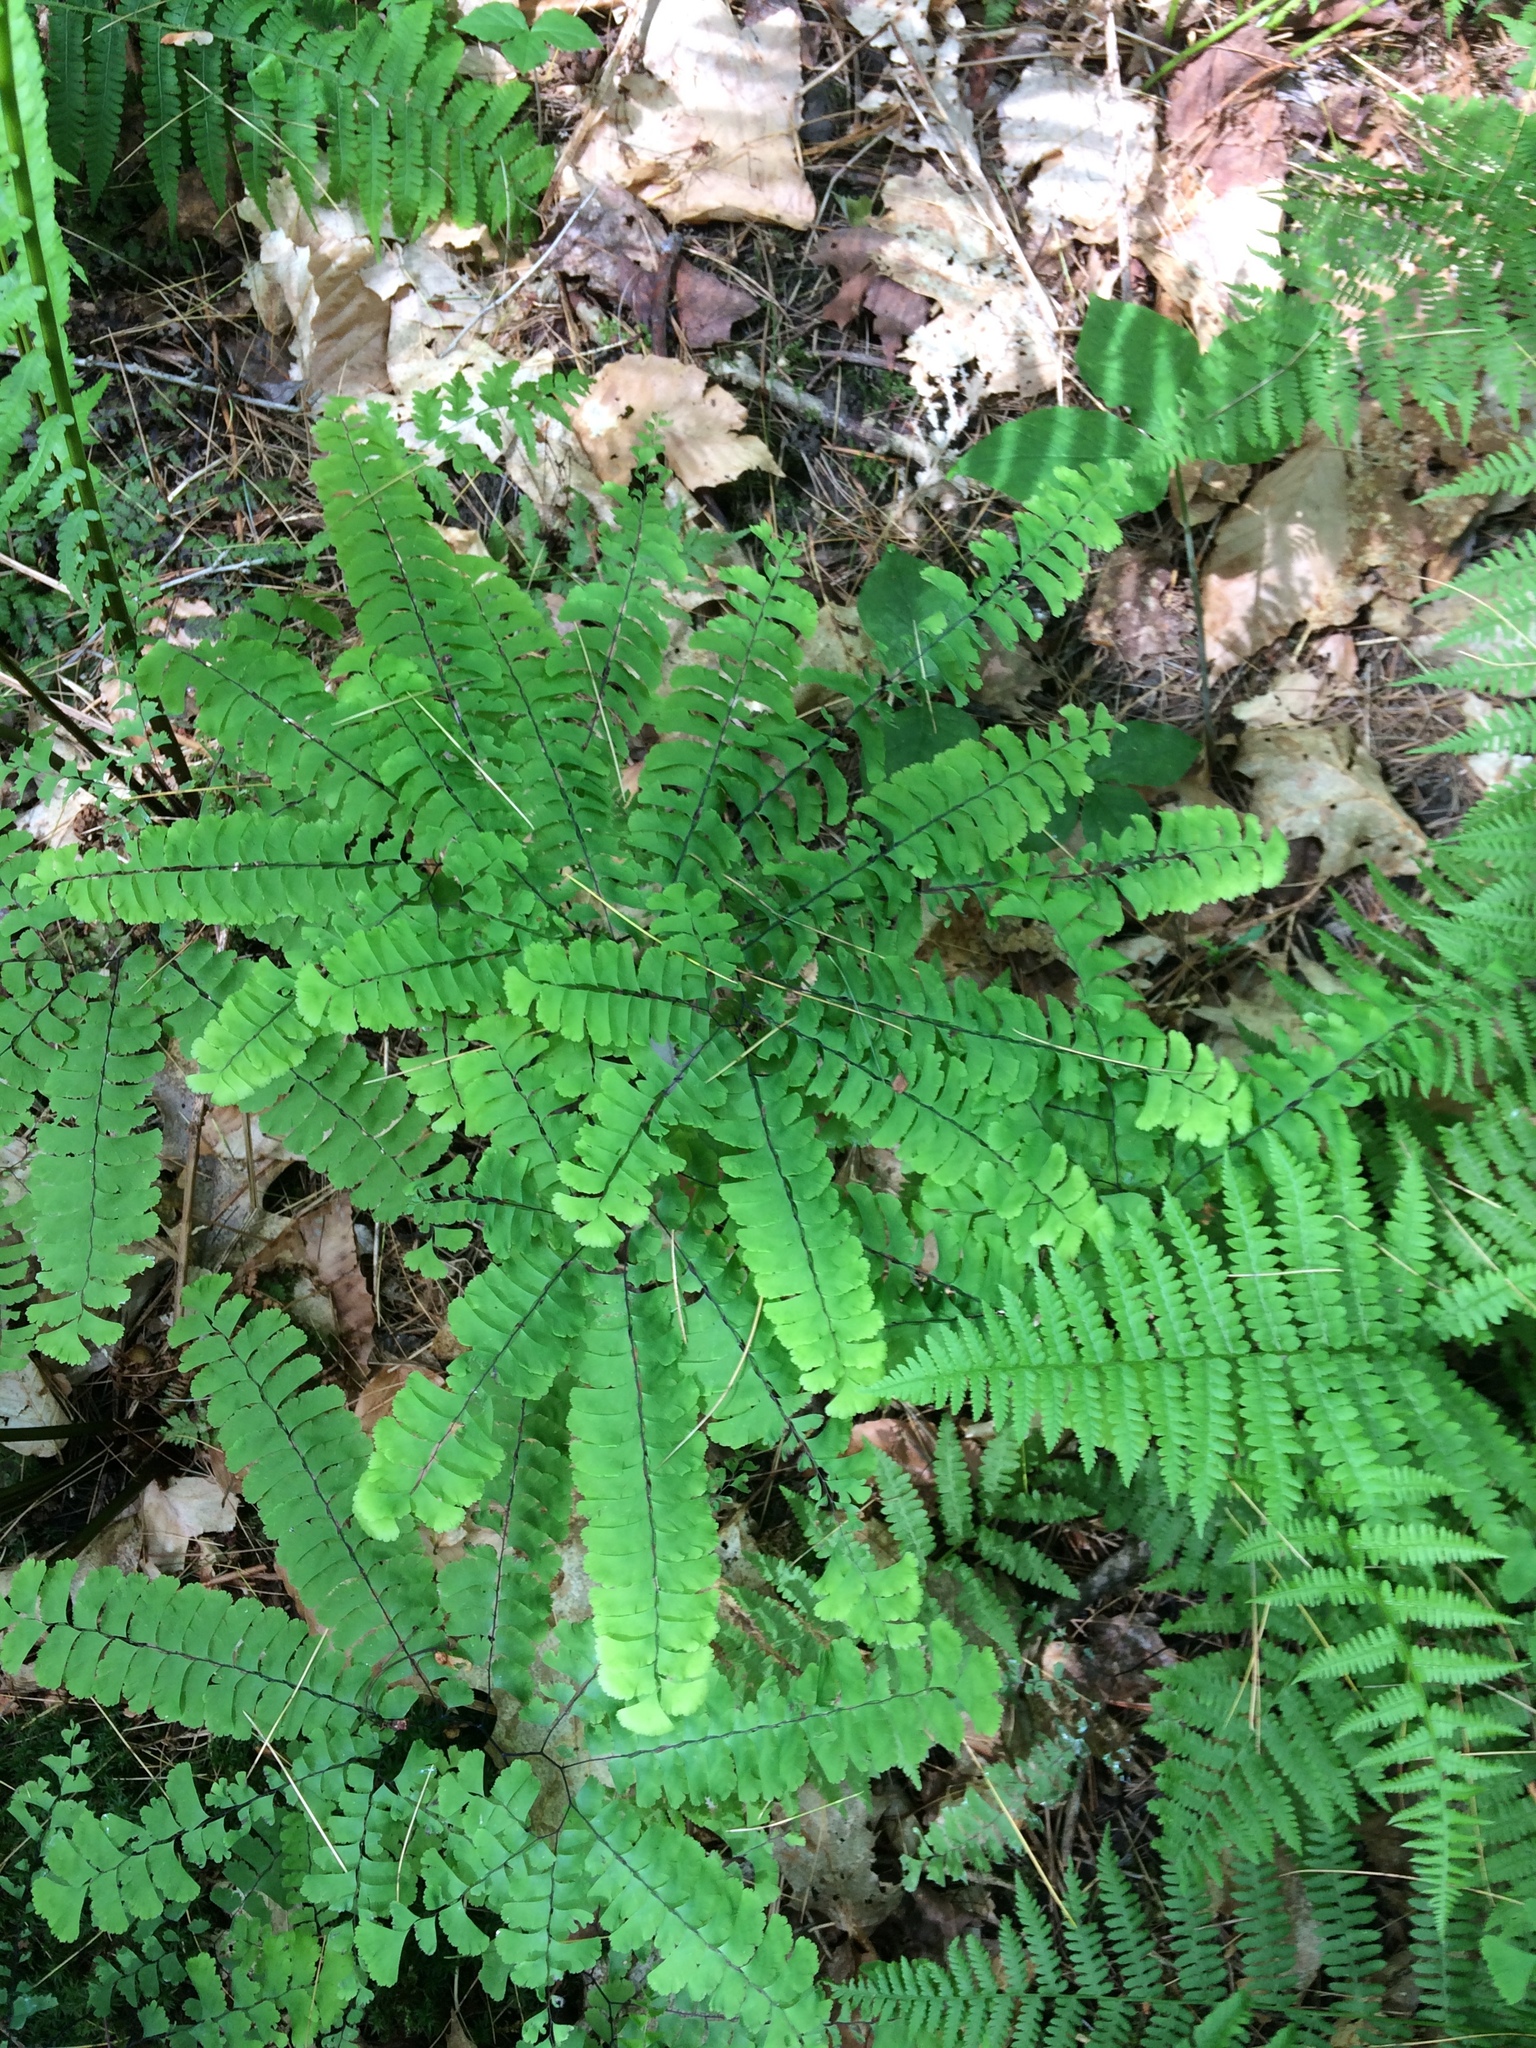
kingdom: Plantae
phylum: Tracheophyta
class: Polypodiopsida
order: Polypodiales
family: Pteridaceae
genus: Adiantum
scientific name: Adiantum pedatum
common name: Five-finger fern
